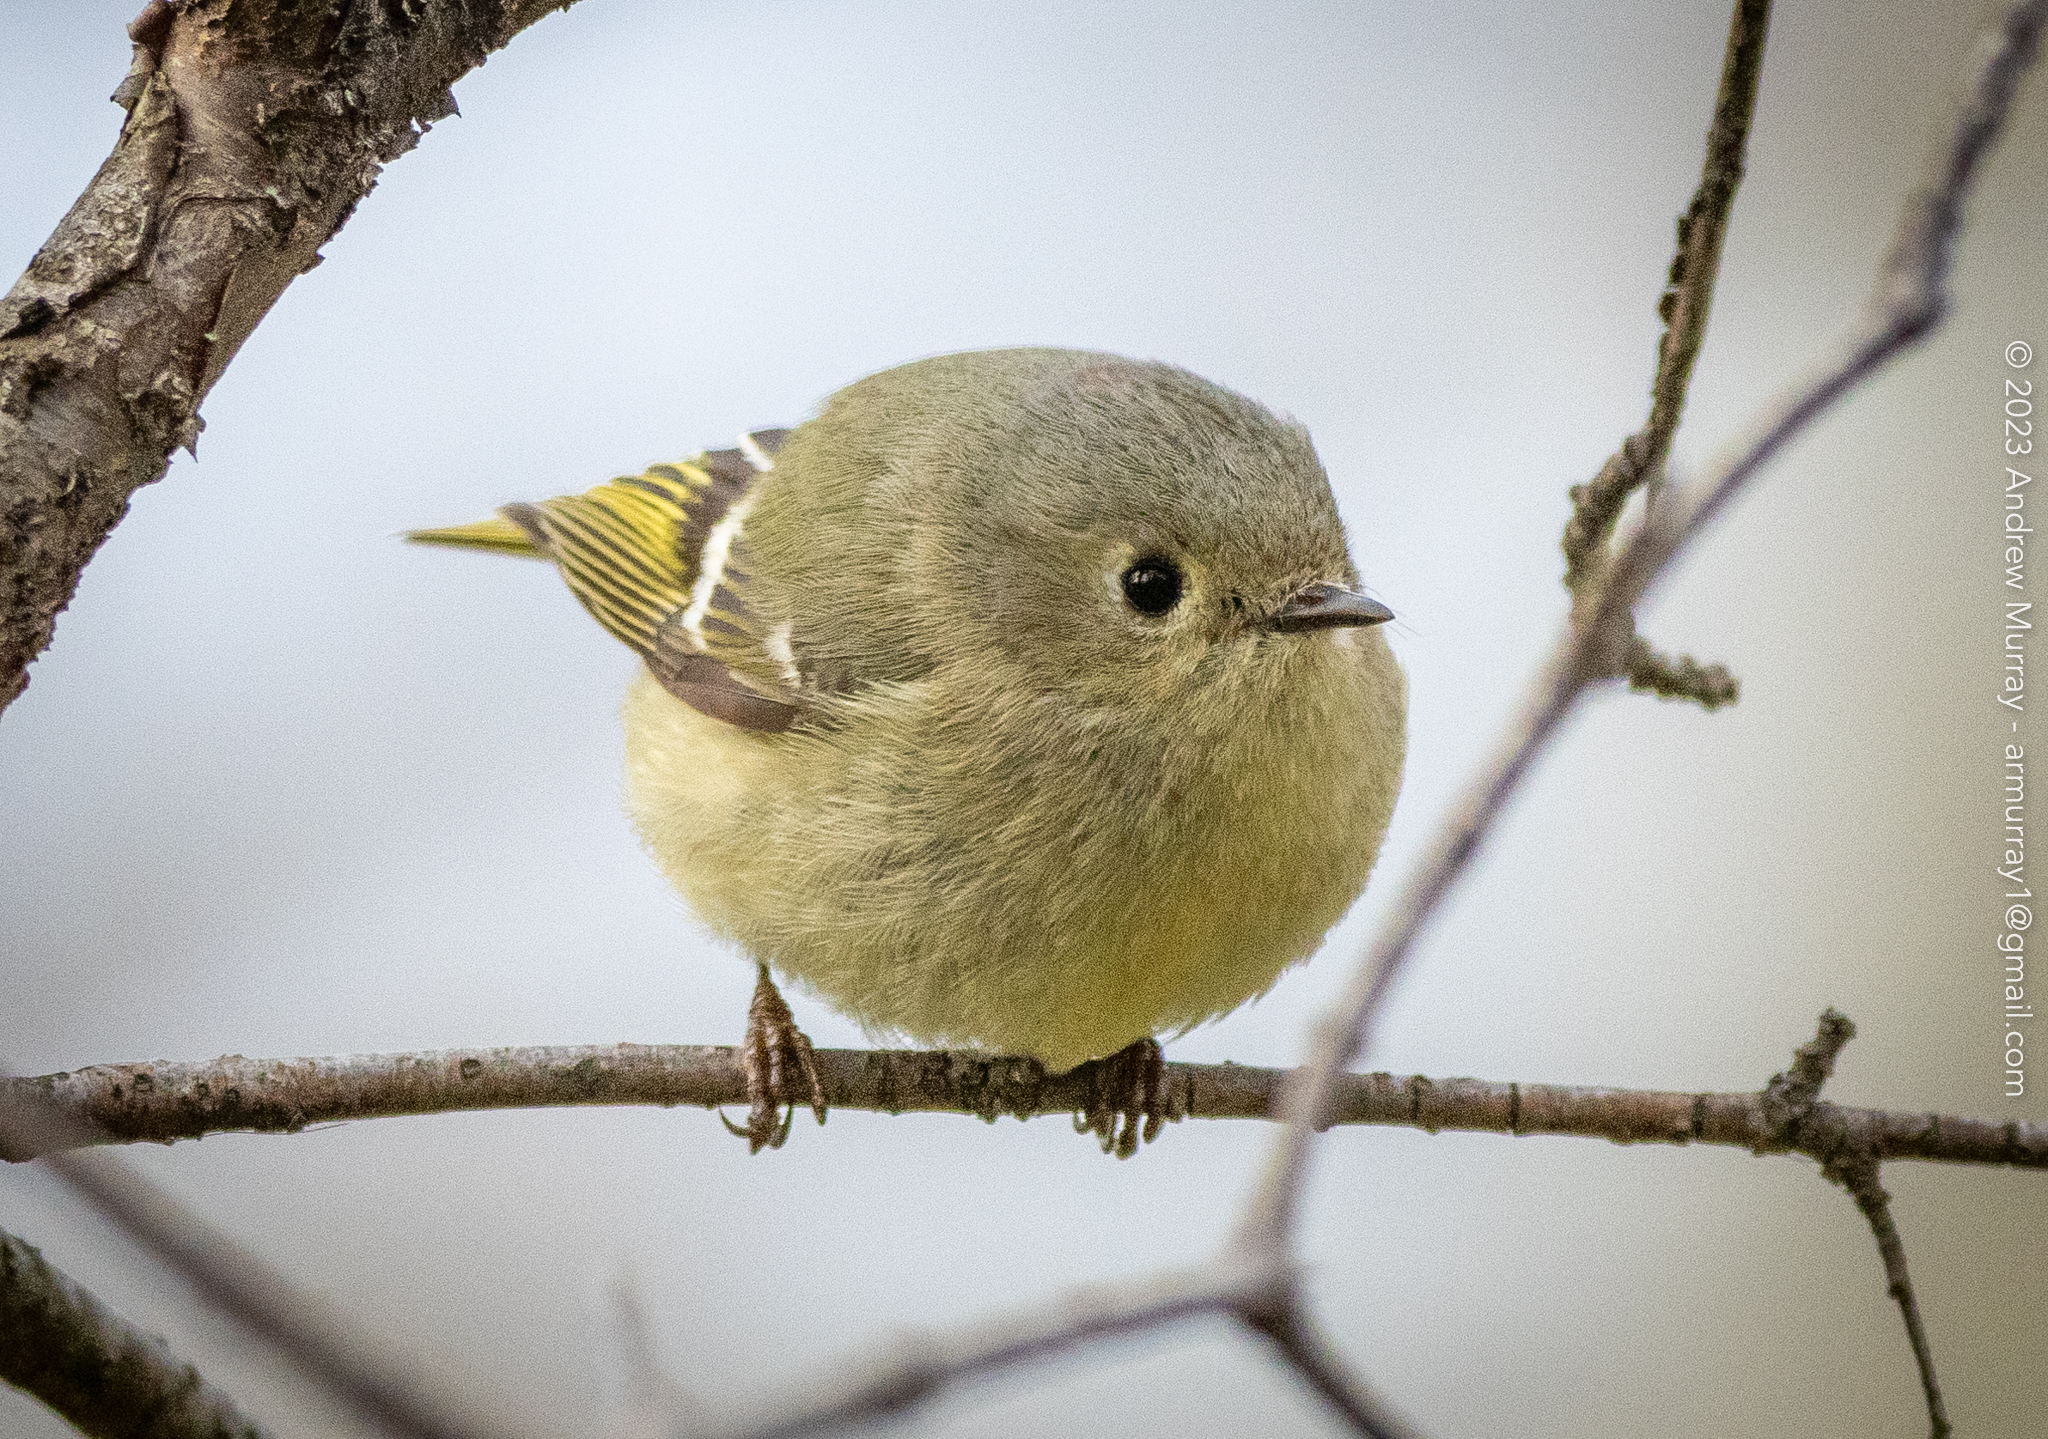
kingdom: Animalia
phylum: Chordata
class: Aves
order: Passeriformes
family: Regulidae
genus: Regulus
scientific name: Regulus calendula
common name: Ruby-crowned kinglet
